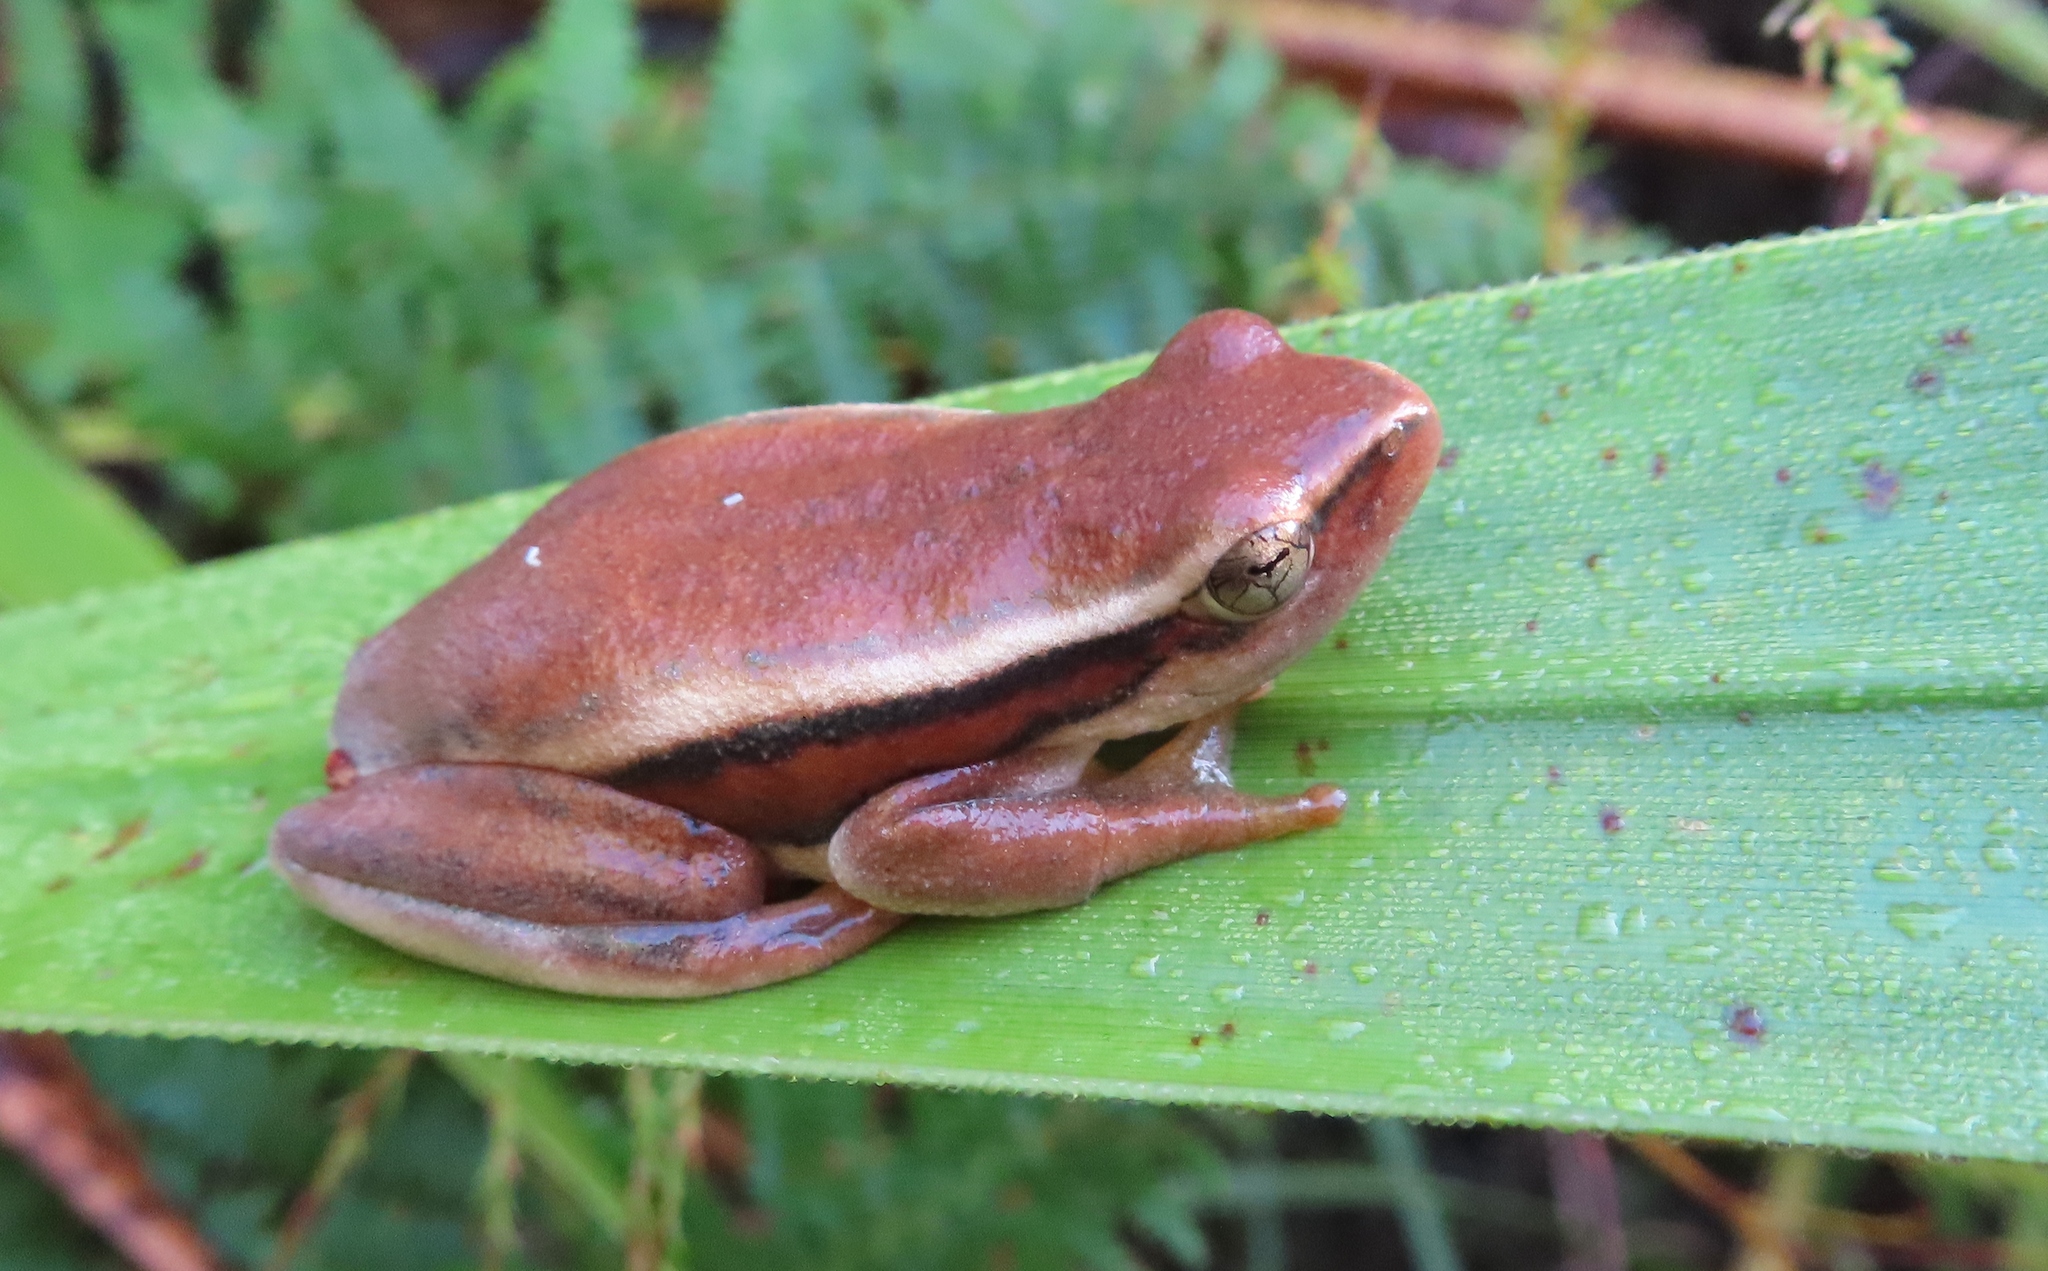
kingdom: Animalia
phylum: Chordata
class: Amphibia
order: Anura
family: Hyperoliidae
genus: Hyperolius
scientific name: Hyperolius horstockii
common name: Arum lily frog
